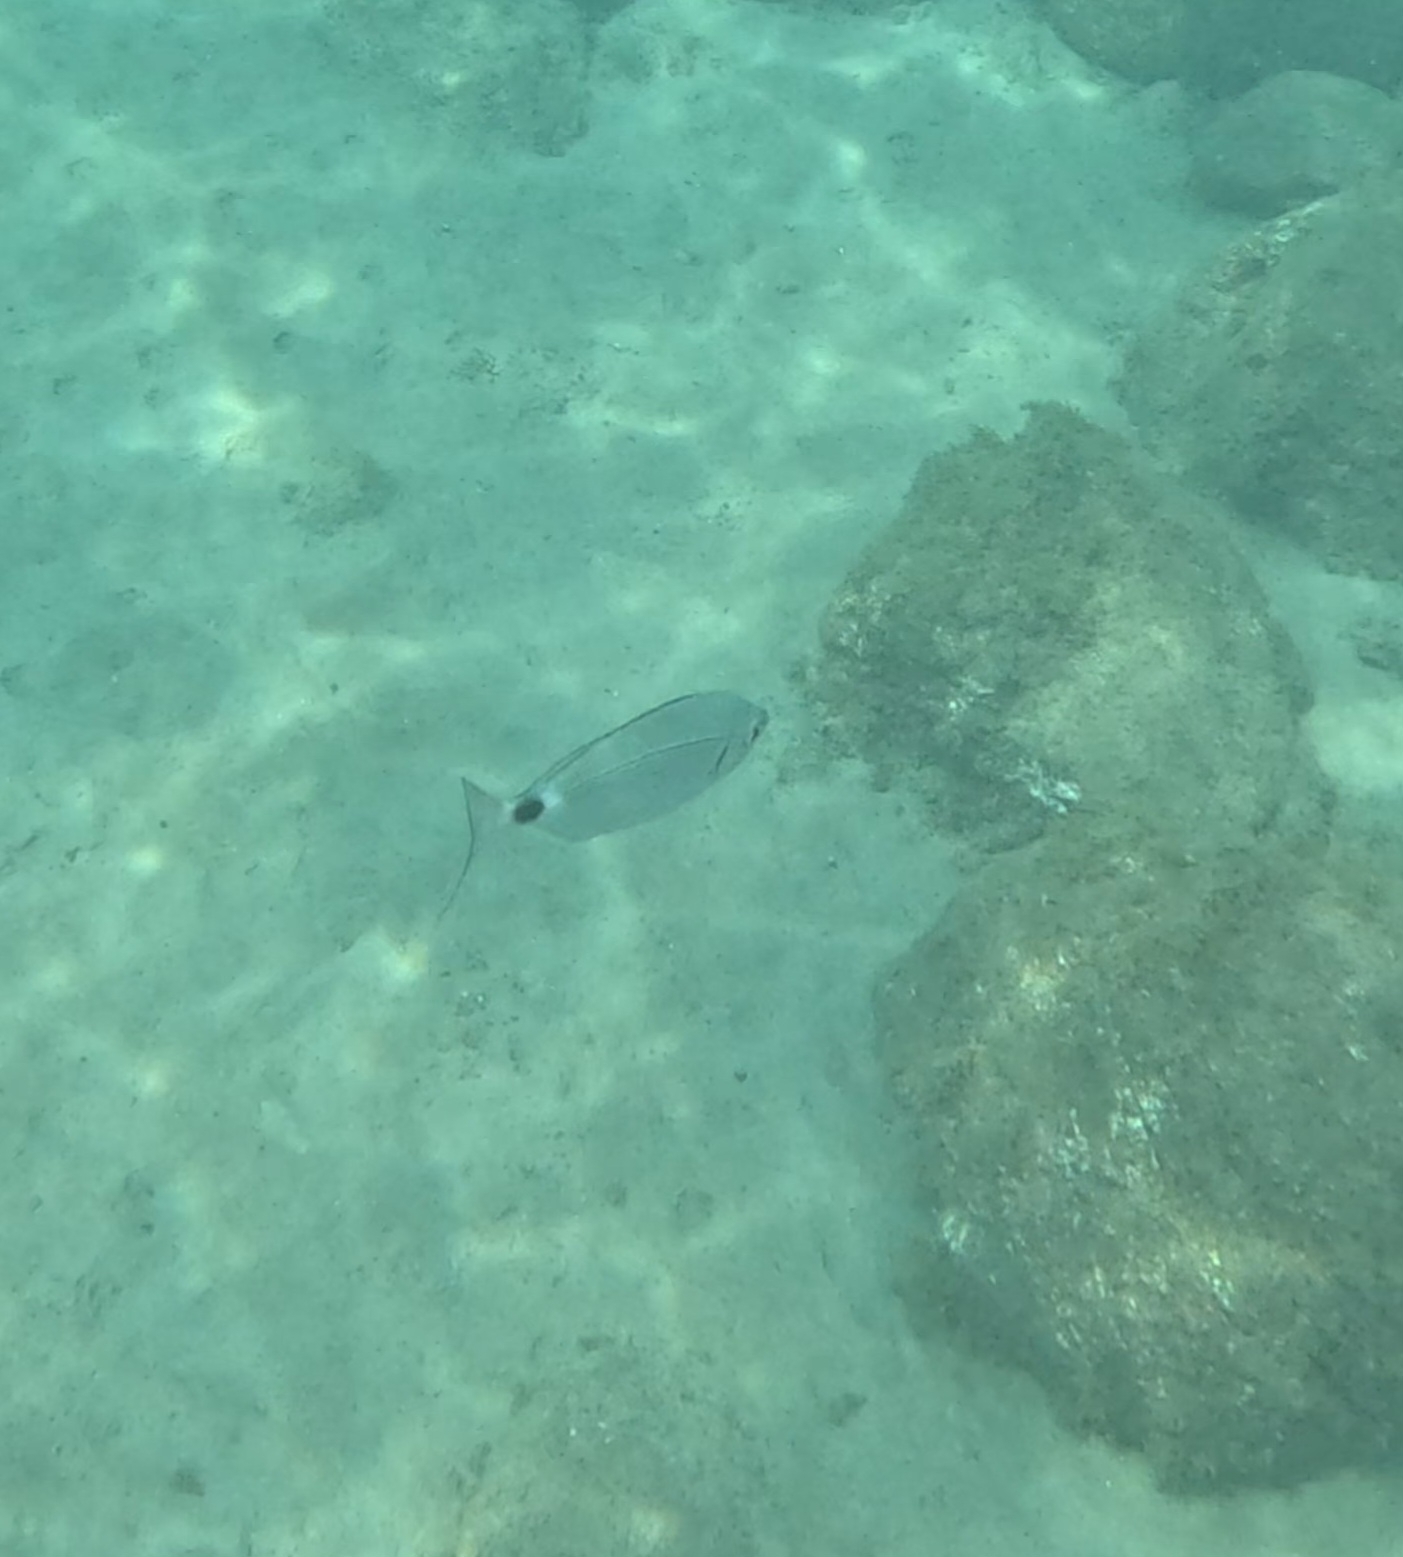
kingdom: Animalia
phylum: Chordata
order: Perciformes
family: Sparidae
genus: Oblada
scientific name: Oblada melanura
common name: Saddled seabream
